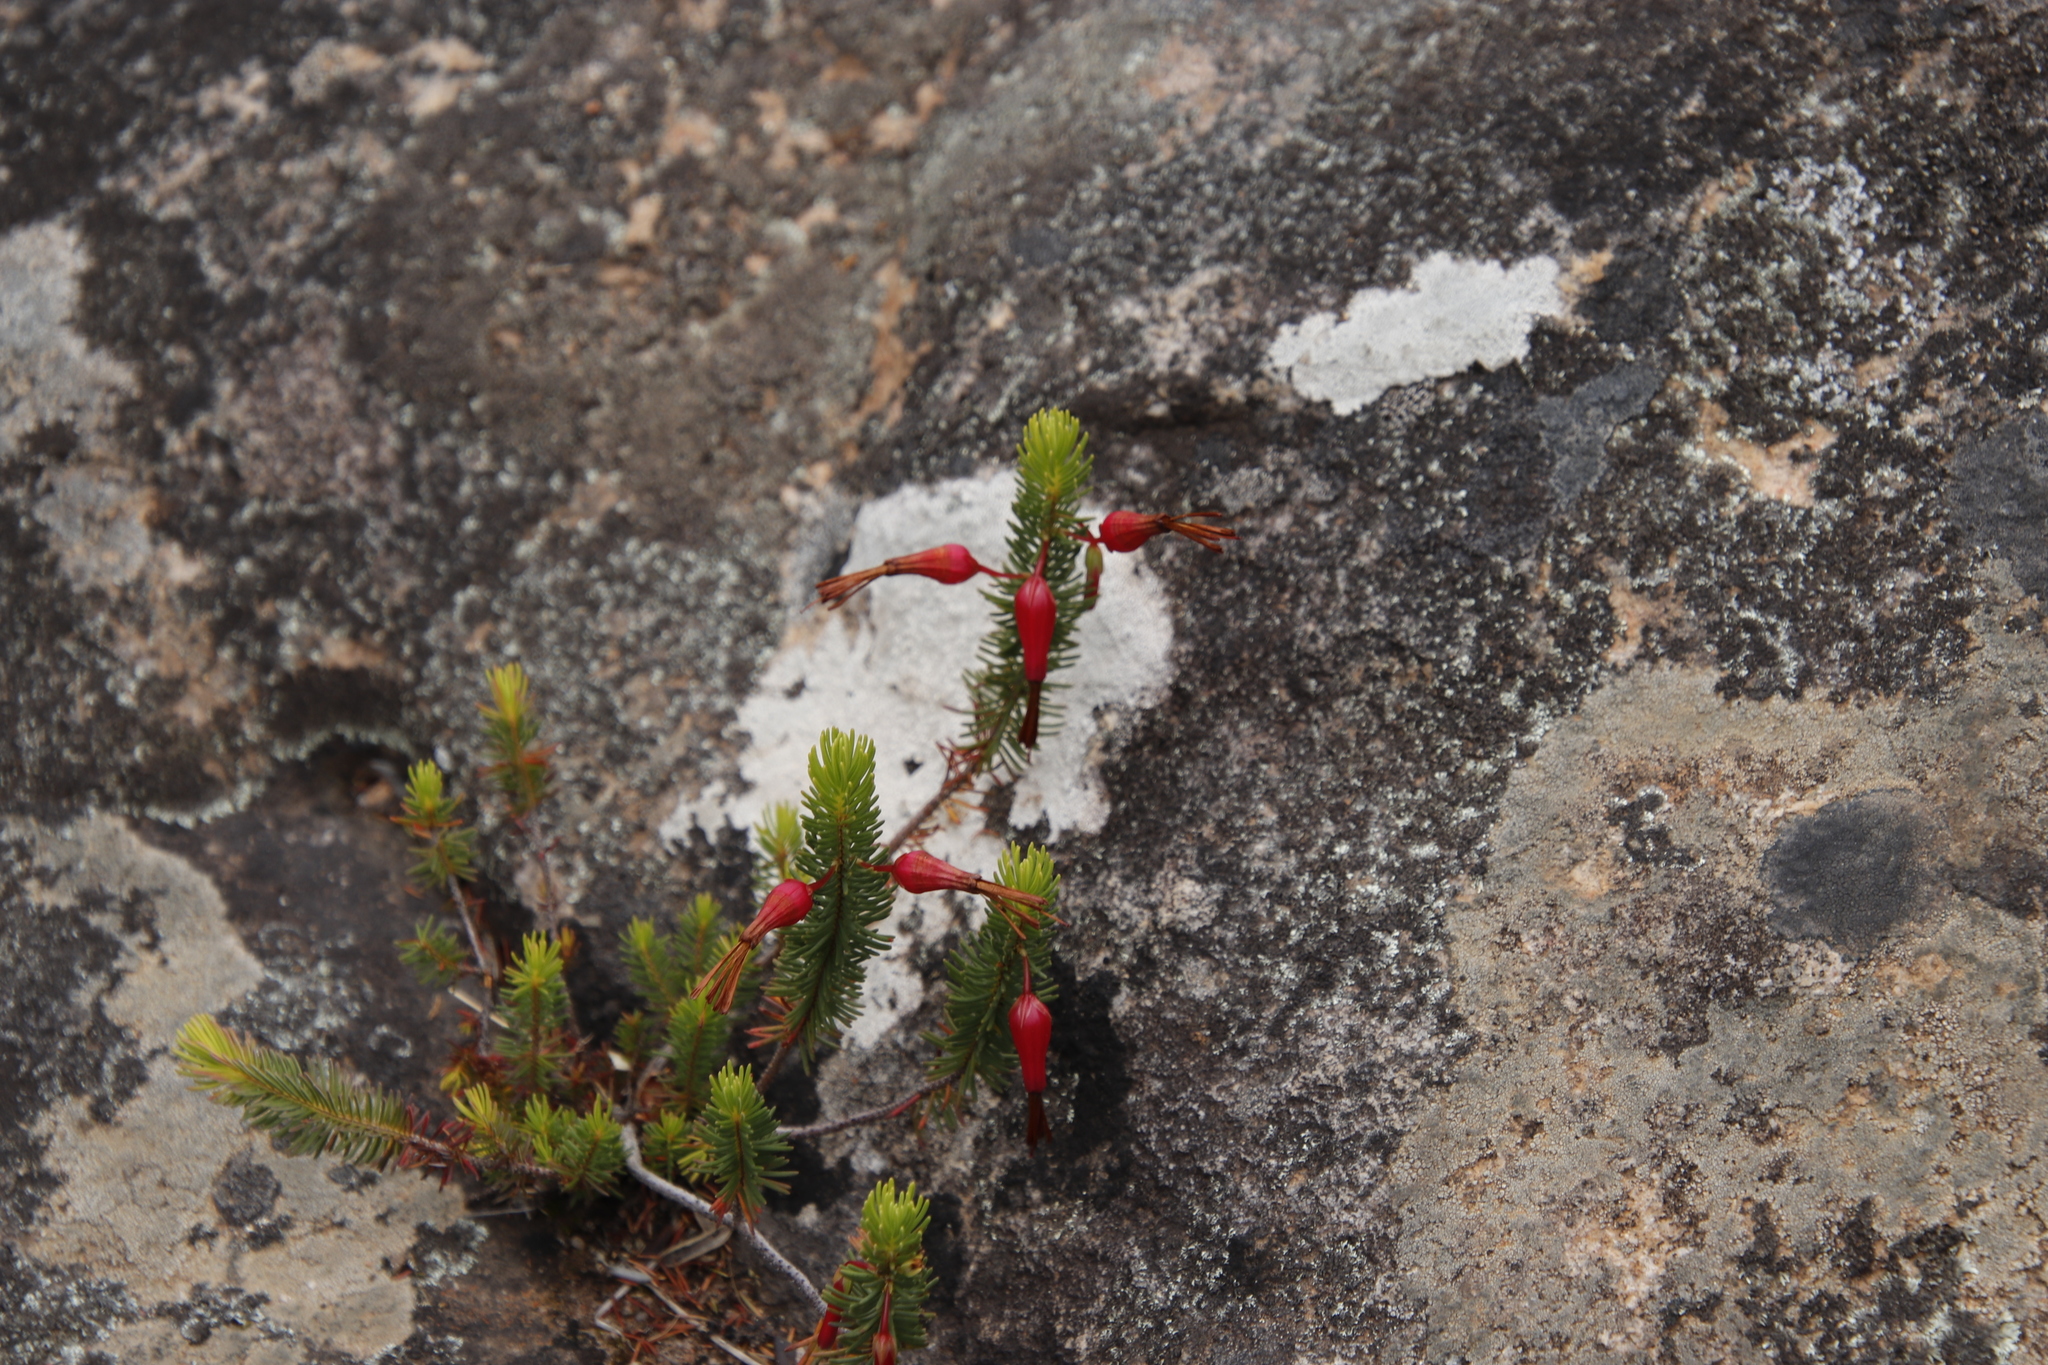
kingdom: Plantae
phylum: Tracheophyta
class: Magnoliopsida
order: Ericales
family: Ericaceae
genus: Erica
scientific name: Erica plukenetii
